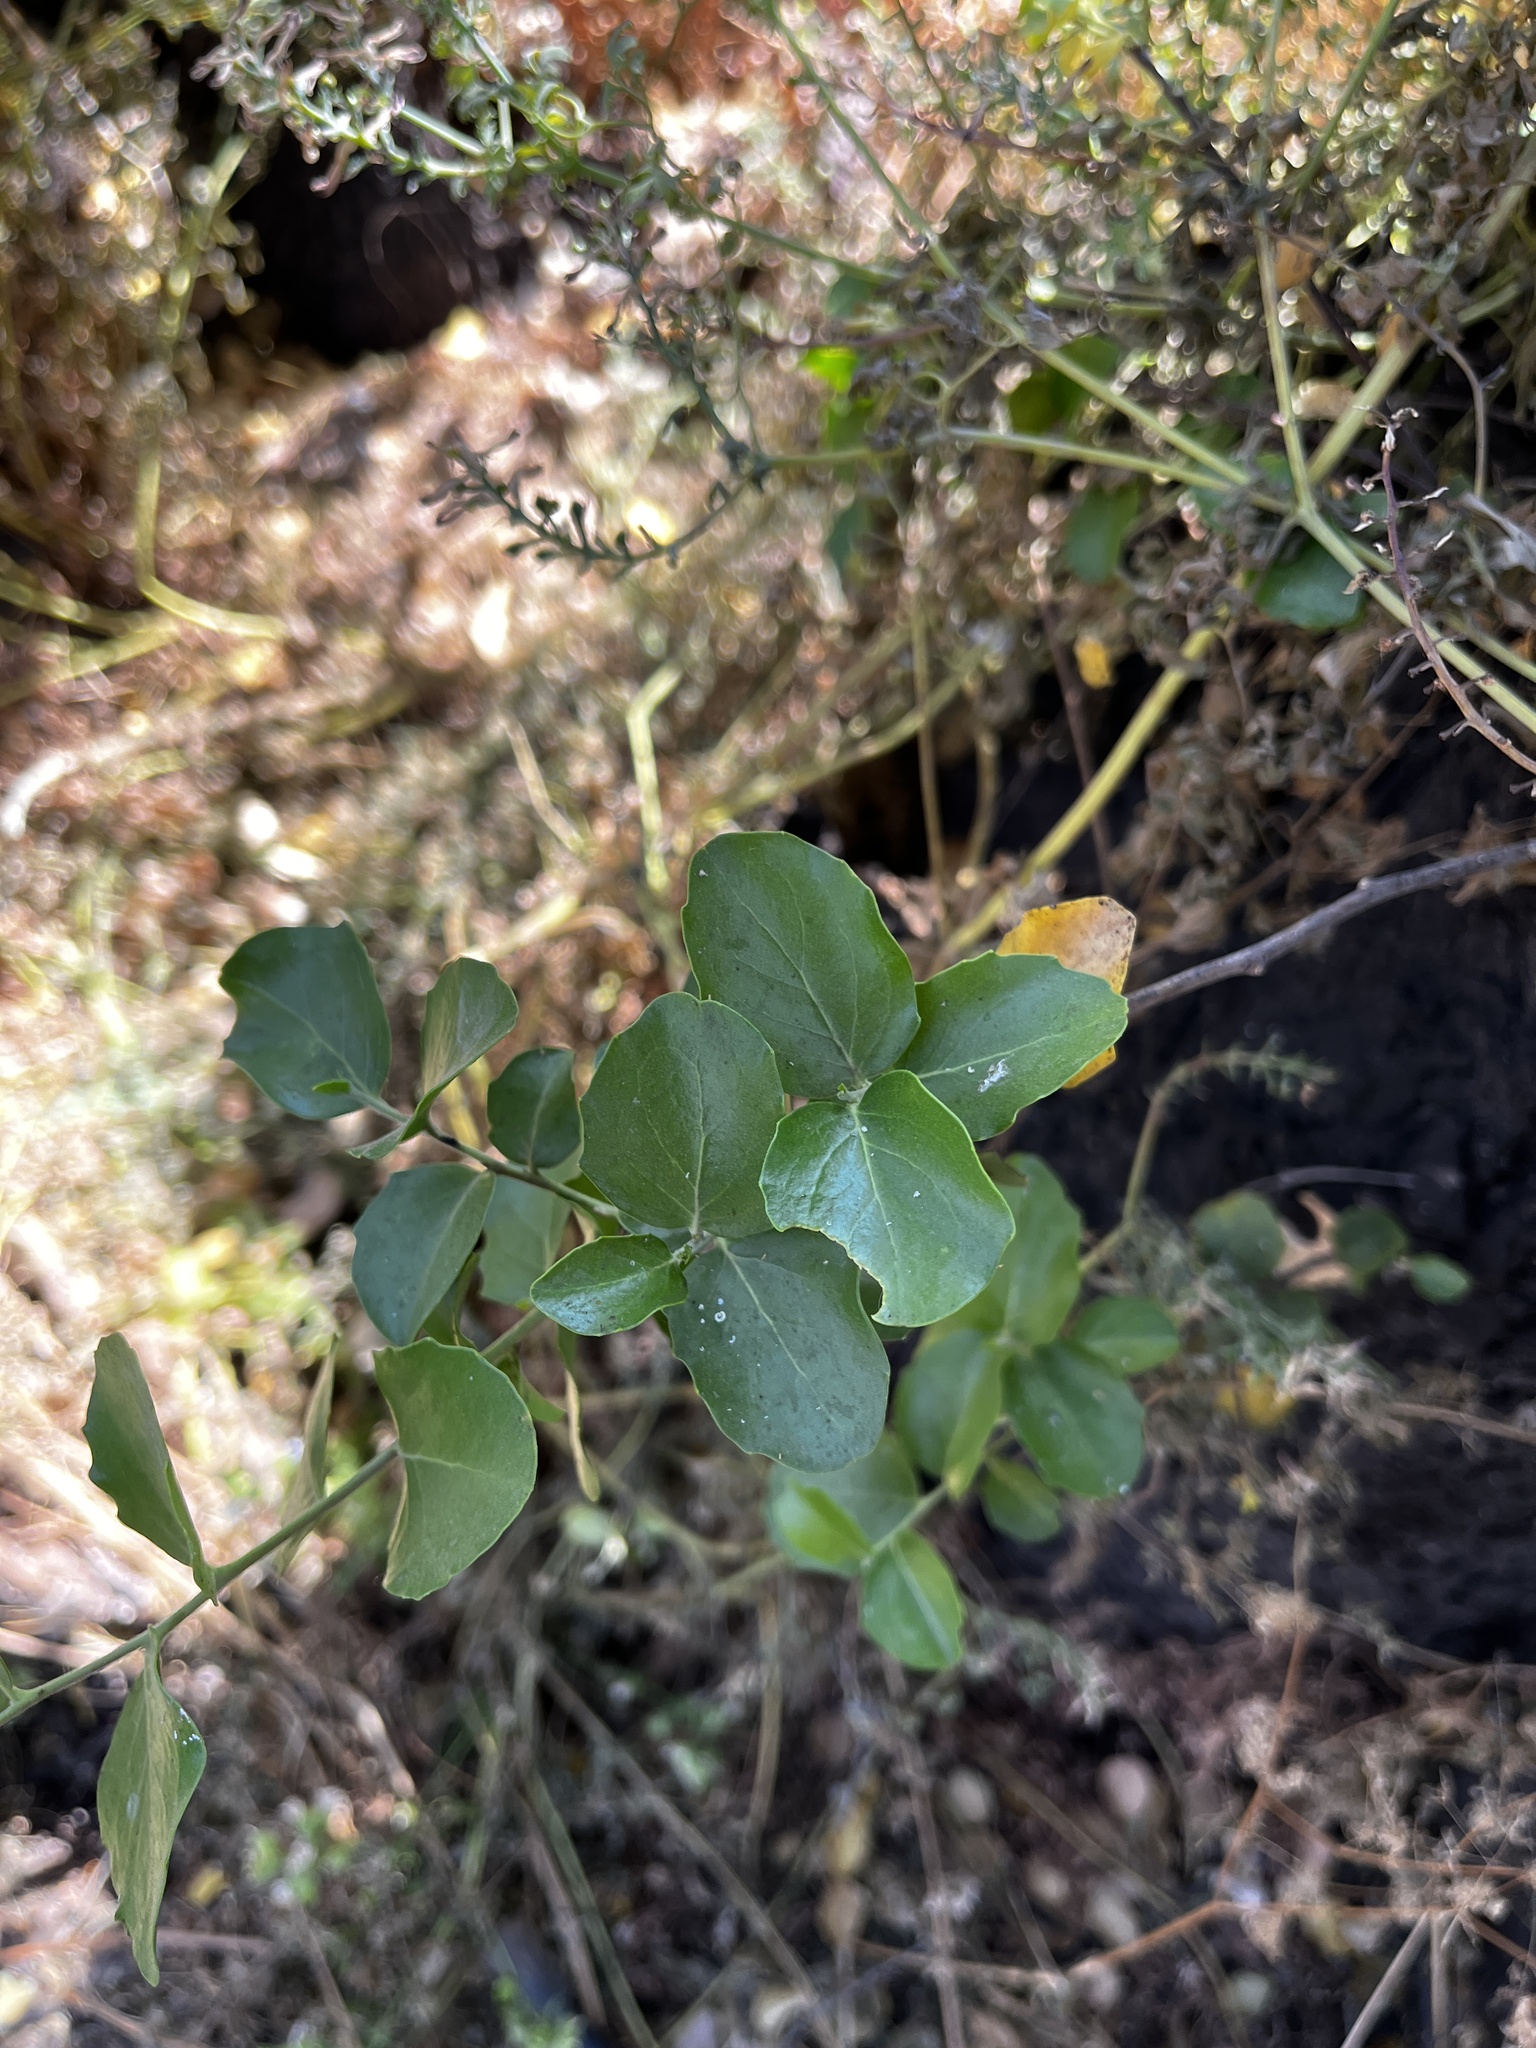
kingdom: Plantae
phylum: Tracheophyta
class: Magnoliopsida
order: Fabales
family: Quillajaceae
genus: Quillaja
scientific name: Quillaja saponaria
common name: Murillo's-bark
